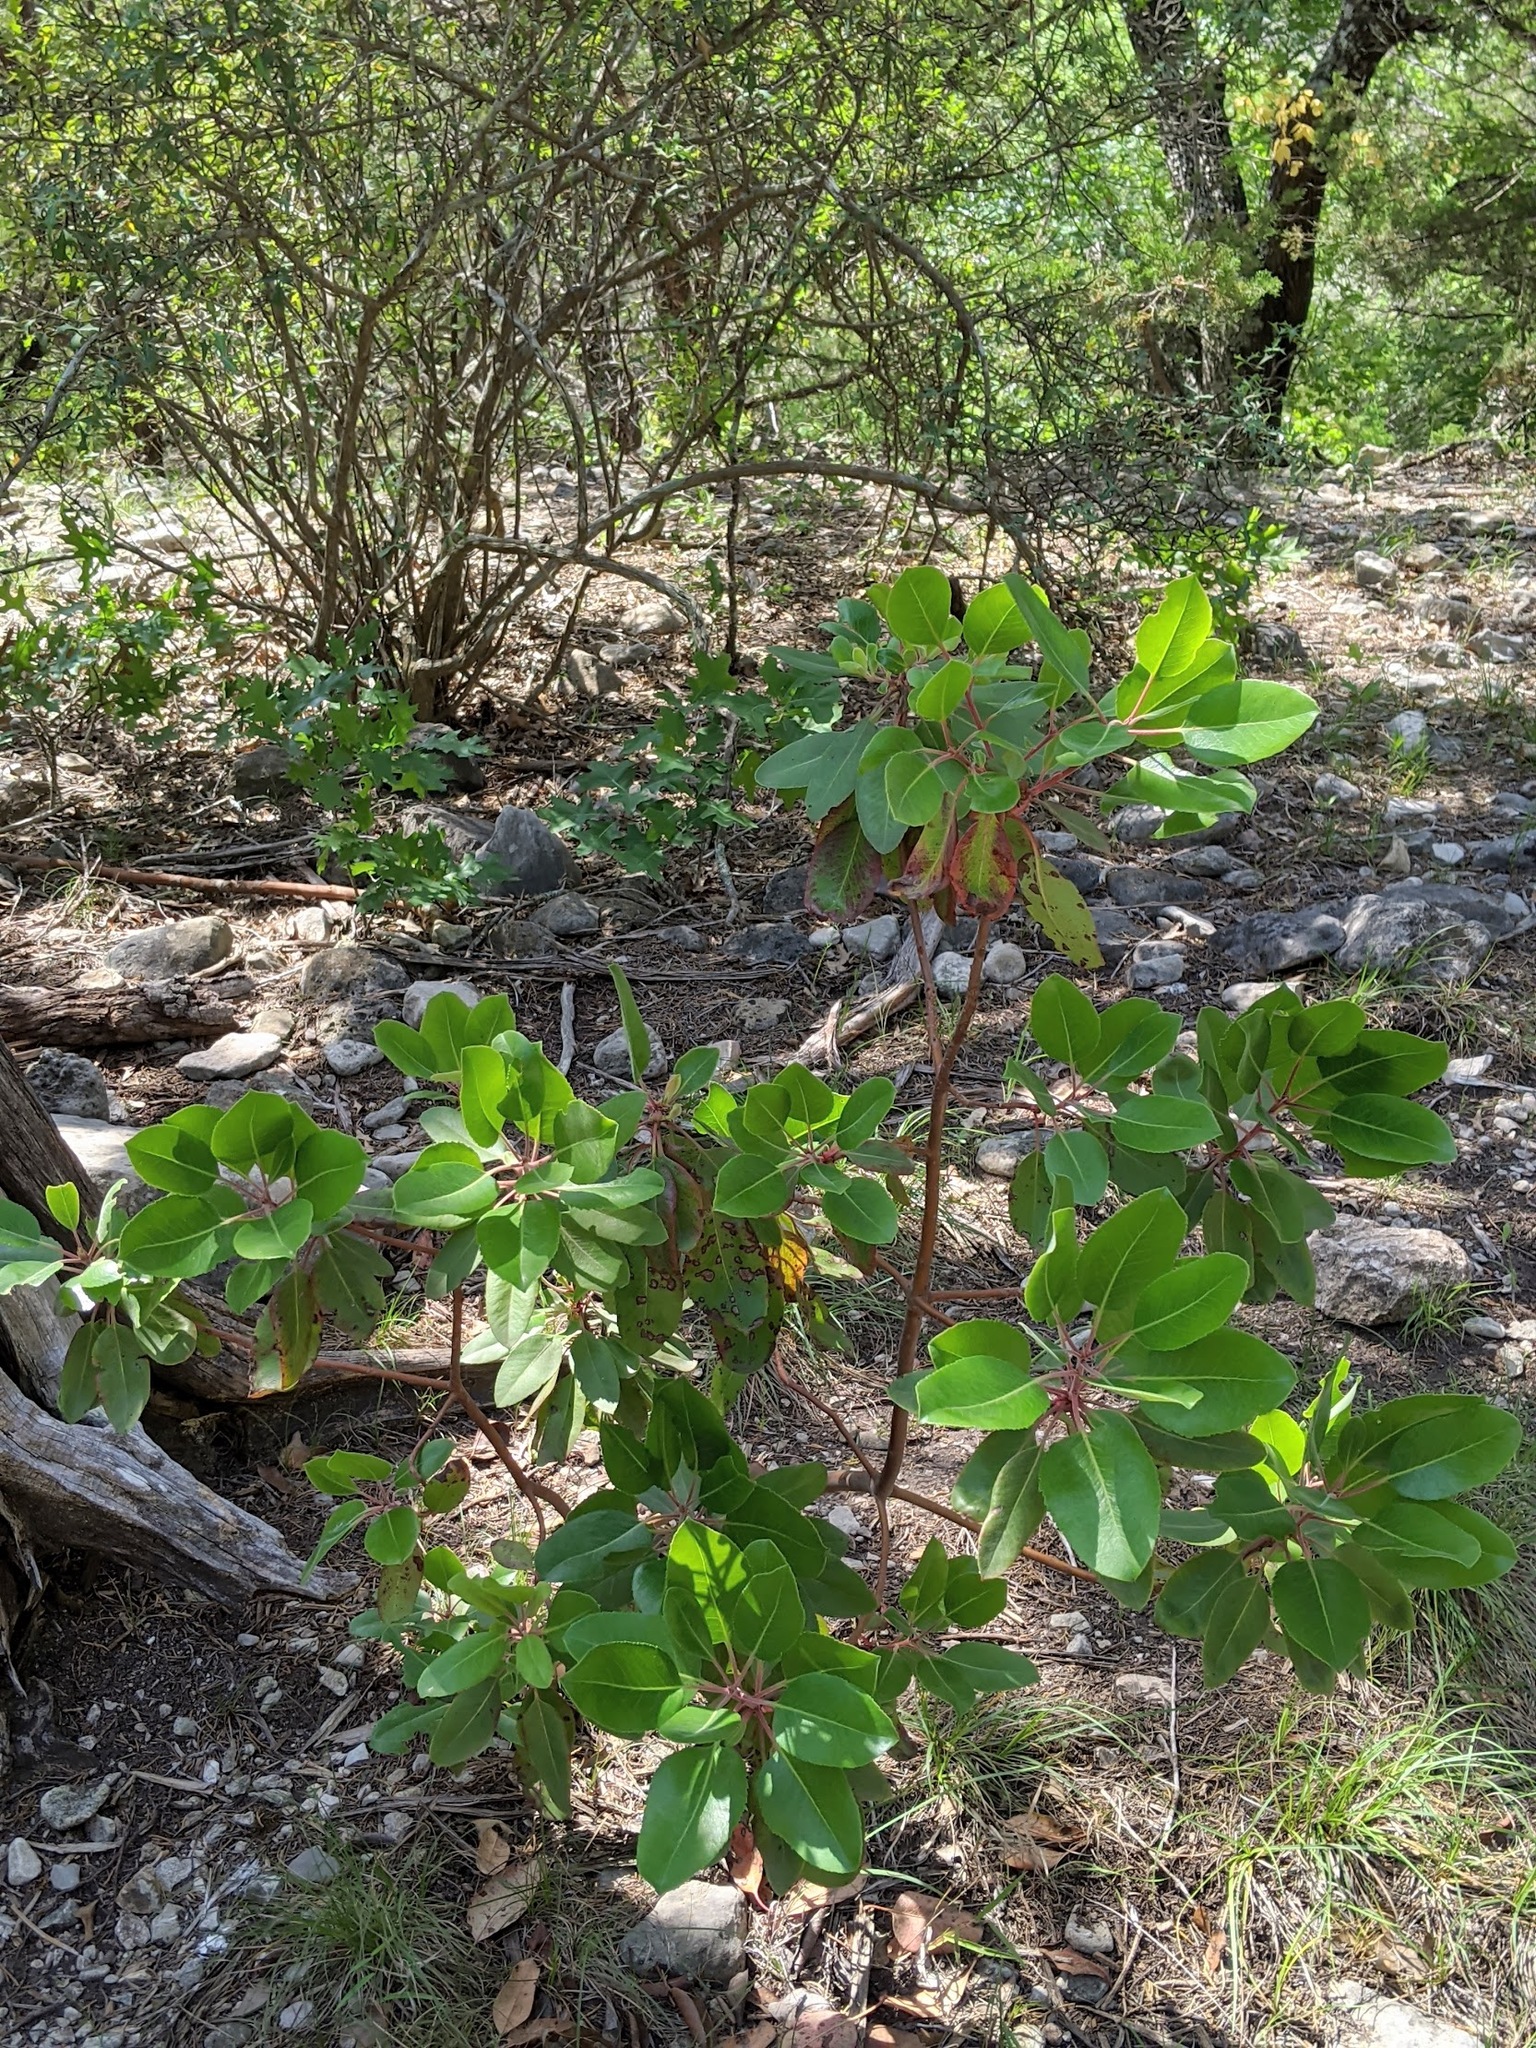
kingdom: Plantae
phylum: Tracheophyta
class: Magnoliopsida
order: Ericales
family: Ericaceae
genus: Arbutus
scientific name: Arbutus xalapensis
